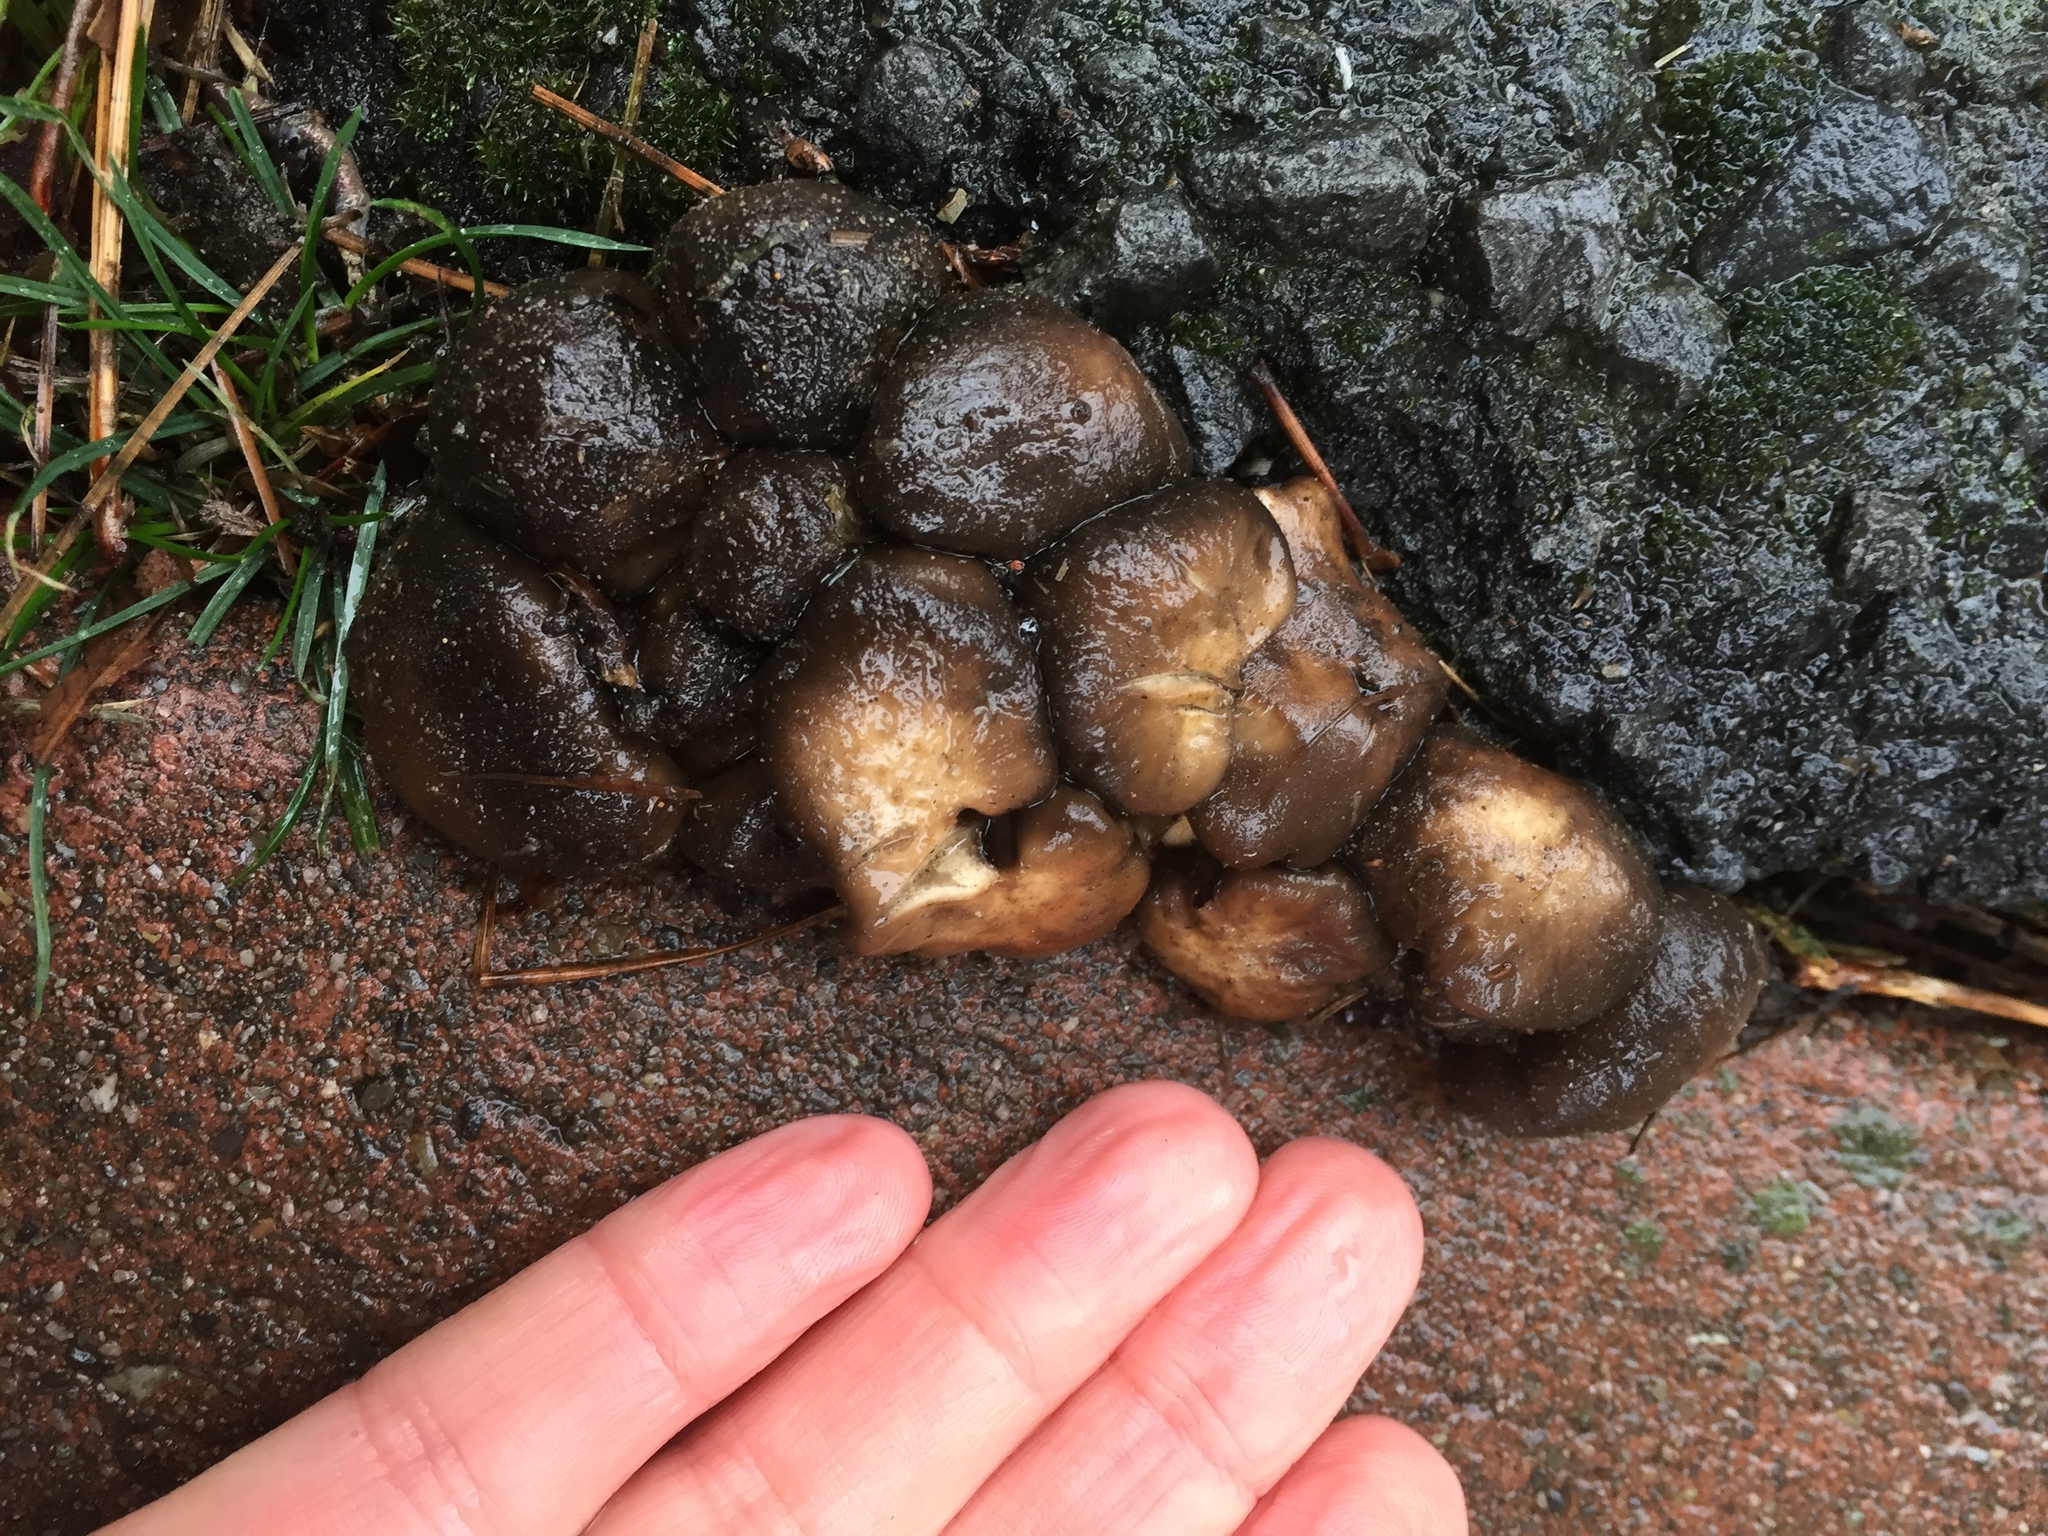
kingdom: Fungi
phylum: Basidiomycota
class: Agaricomycetes
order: Agaricales
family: Lyophyllaceae
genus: Lyophyllum
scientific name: Lyophyllum decastes
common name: Clustered domecap
